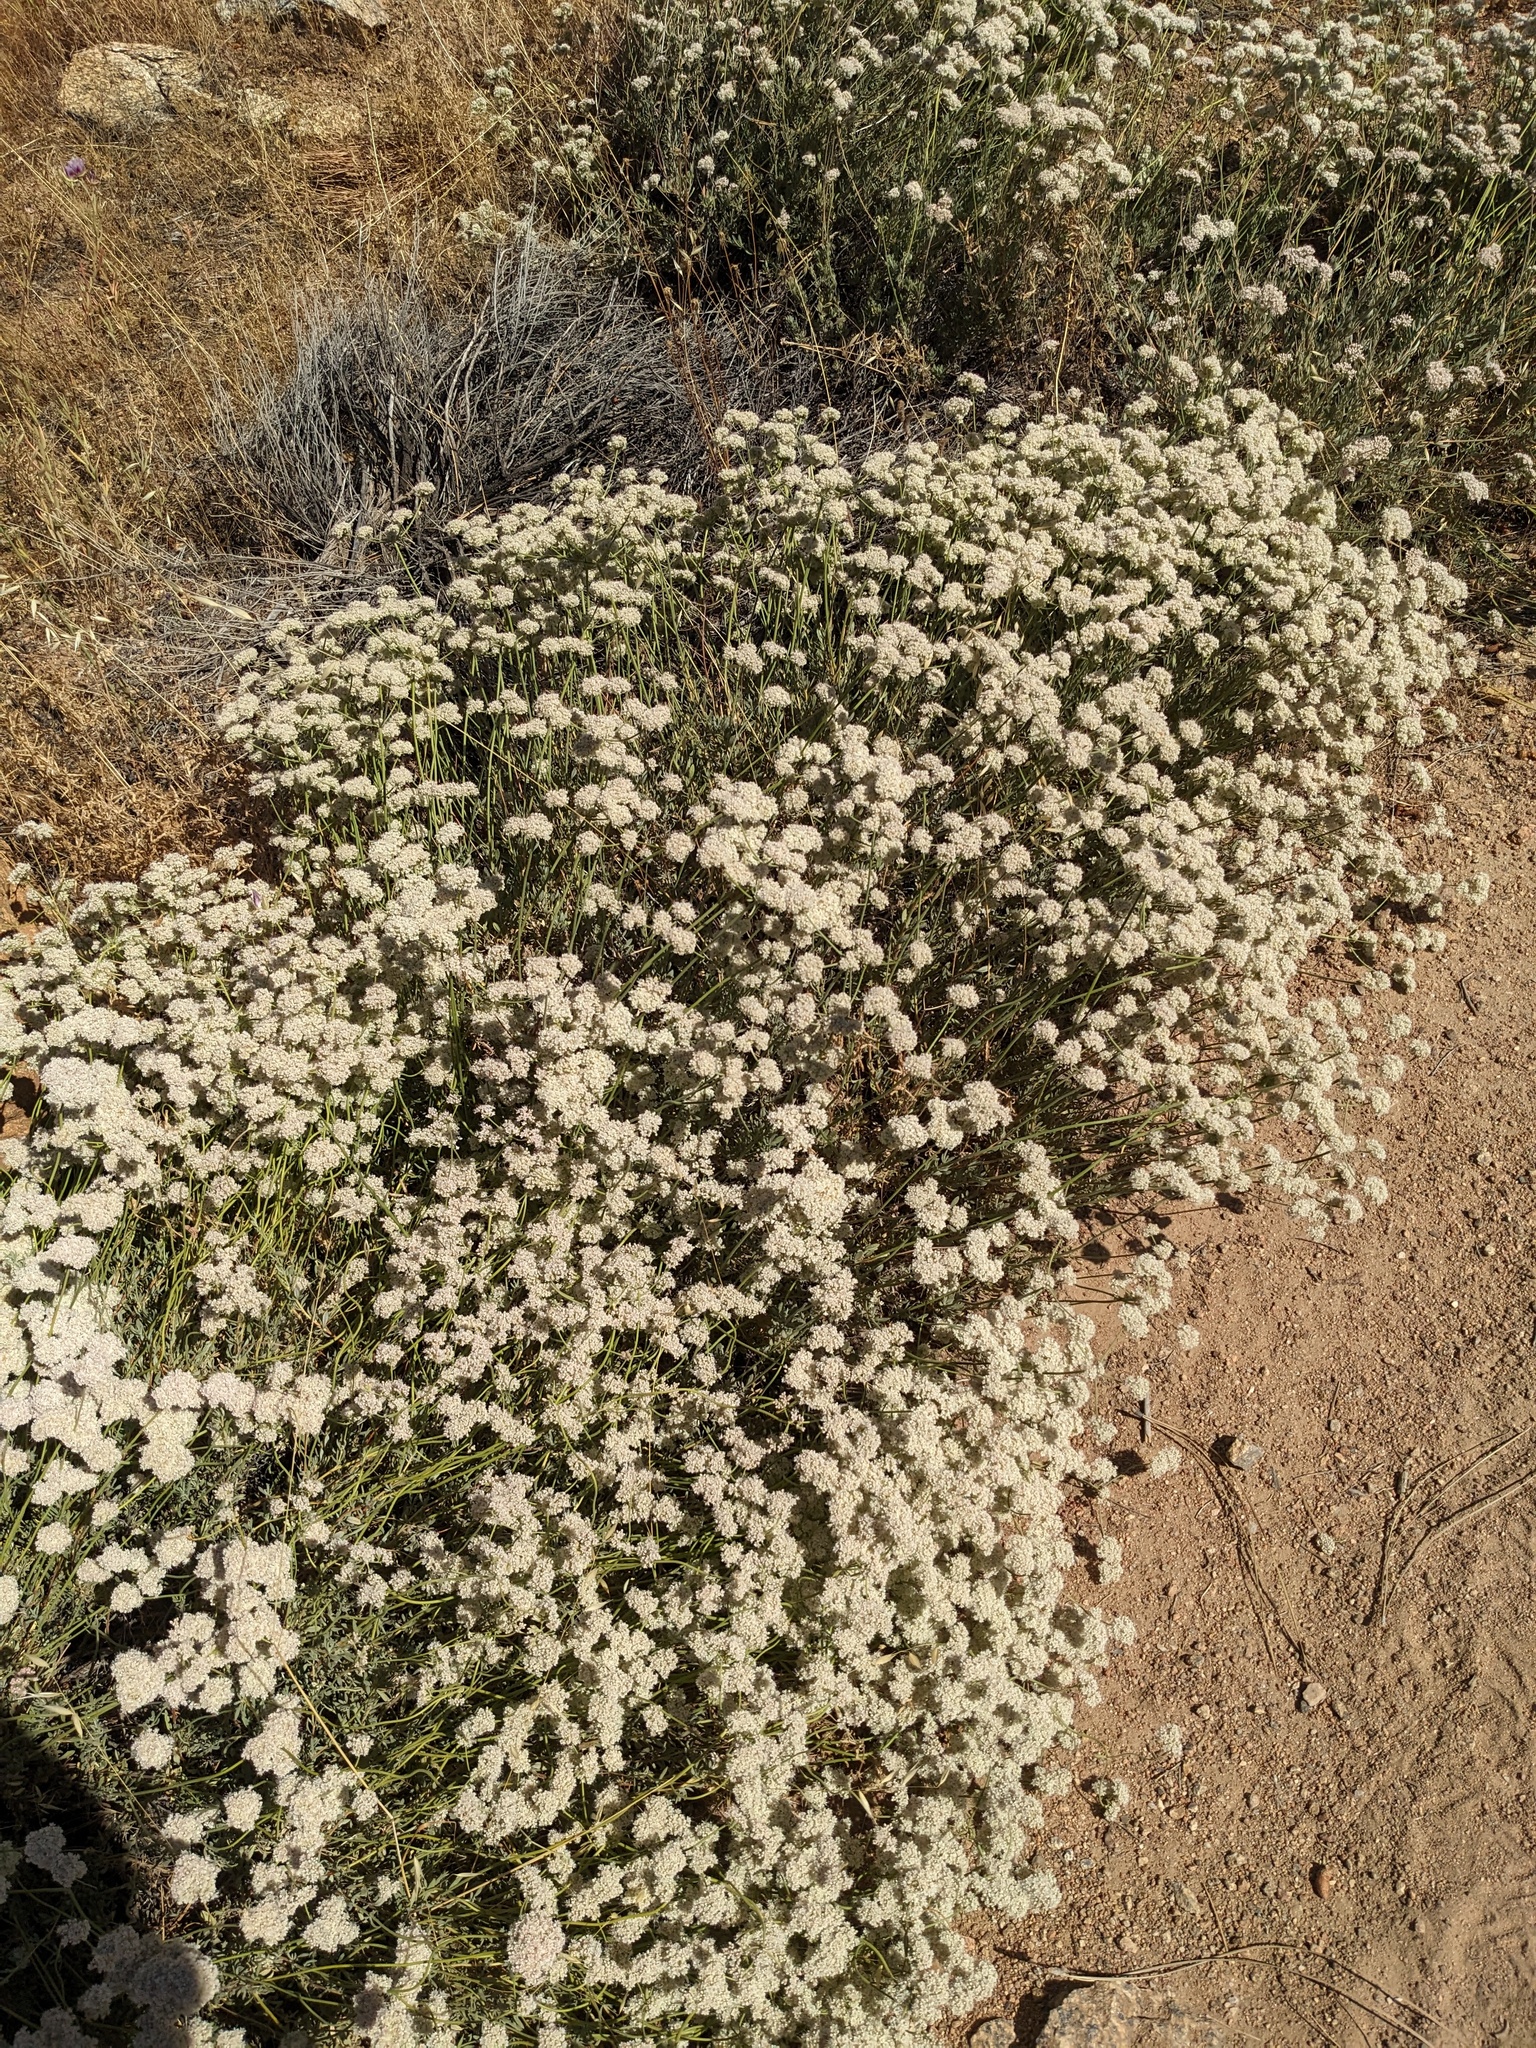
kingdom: Plantae
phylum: Tracheophyta
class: Magnoliopsida
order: Caryophyllales
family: Polygonaceae
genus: Eriogonum
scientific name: Eriogonum fasciculatum
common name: California wild buckwheat
